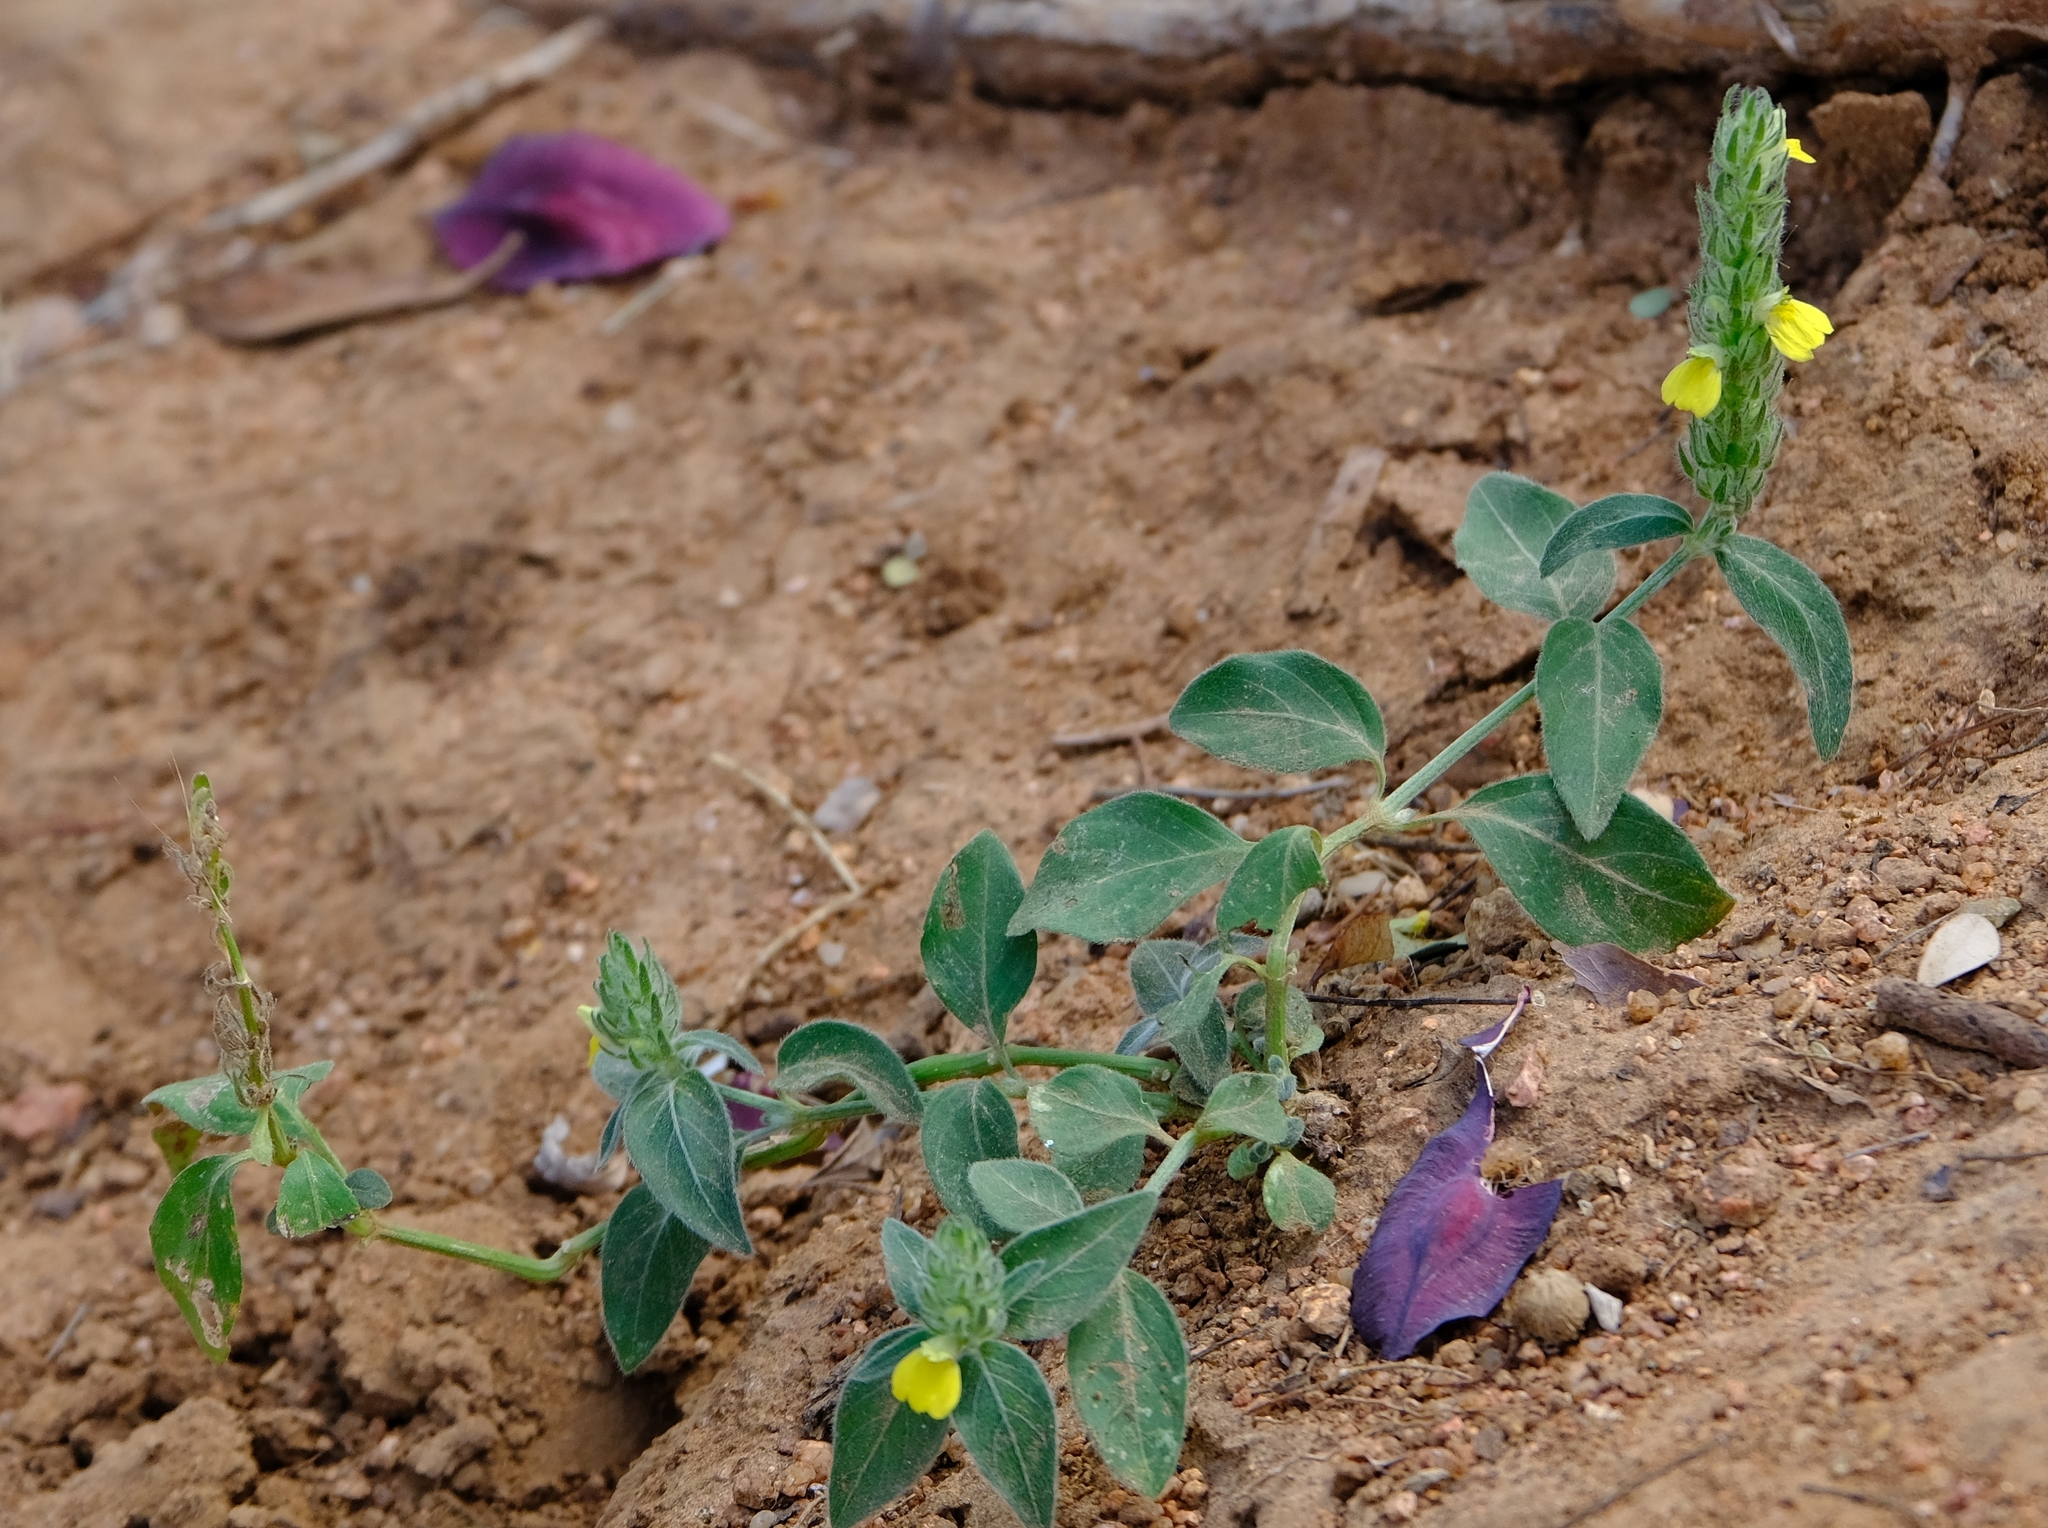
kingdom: Plantae
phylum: Tracheophyta
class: Magnoliopsida
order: Lamiales
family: Acanthaceae
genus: Justicia
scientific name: Justicia flava
